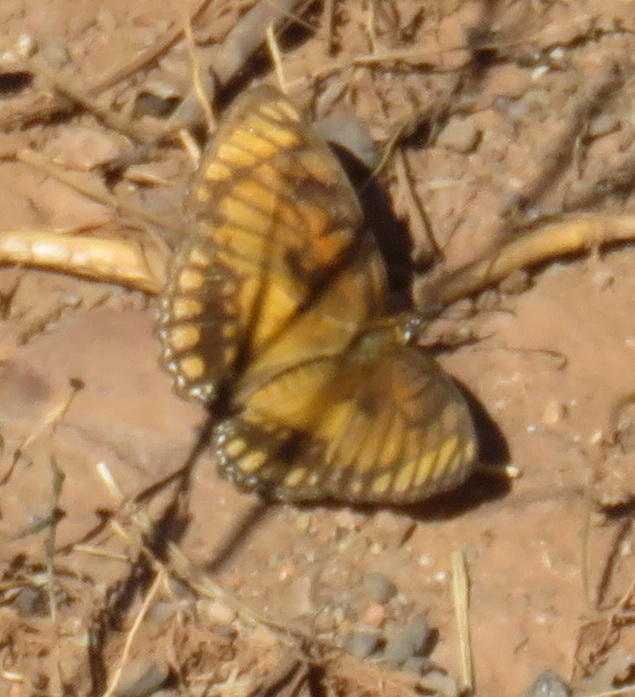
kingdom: Animalia
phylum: Arthropoda
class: Insecta
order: Lepidoptera
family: Nymphalidae
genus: Byblia
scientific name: Byblia acheloia
